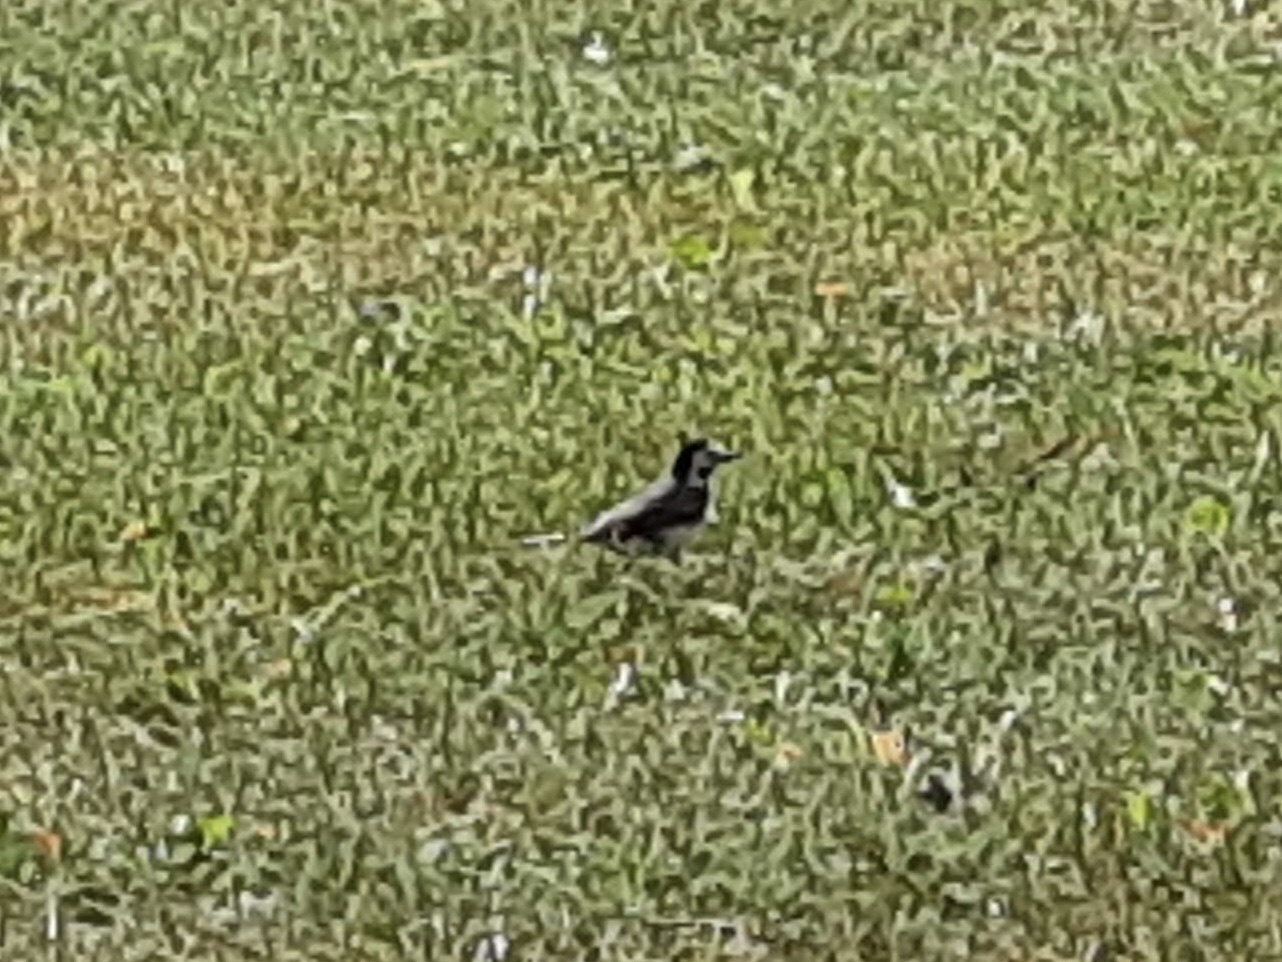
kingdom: Animalia
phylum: Chordata
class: Aves
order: Passeriformes
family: Motacillidae
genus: Motacilla
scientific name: Motacilla alba
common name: White wagtail
